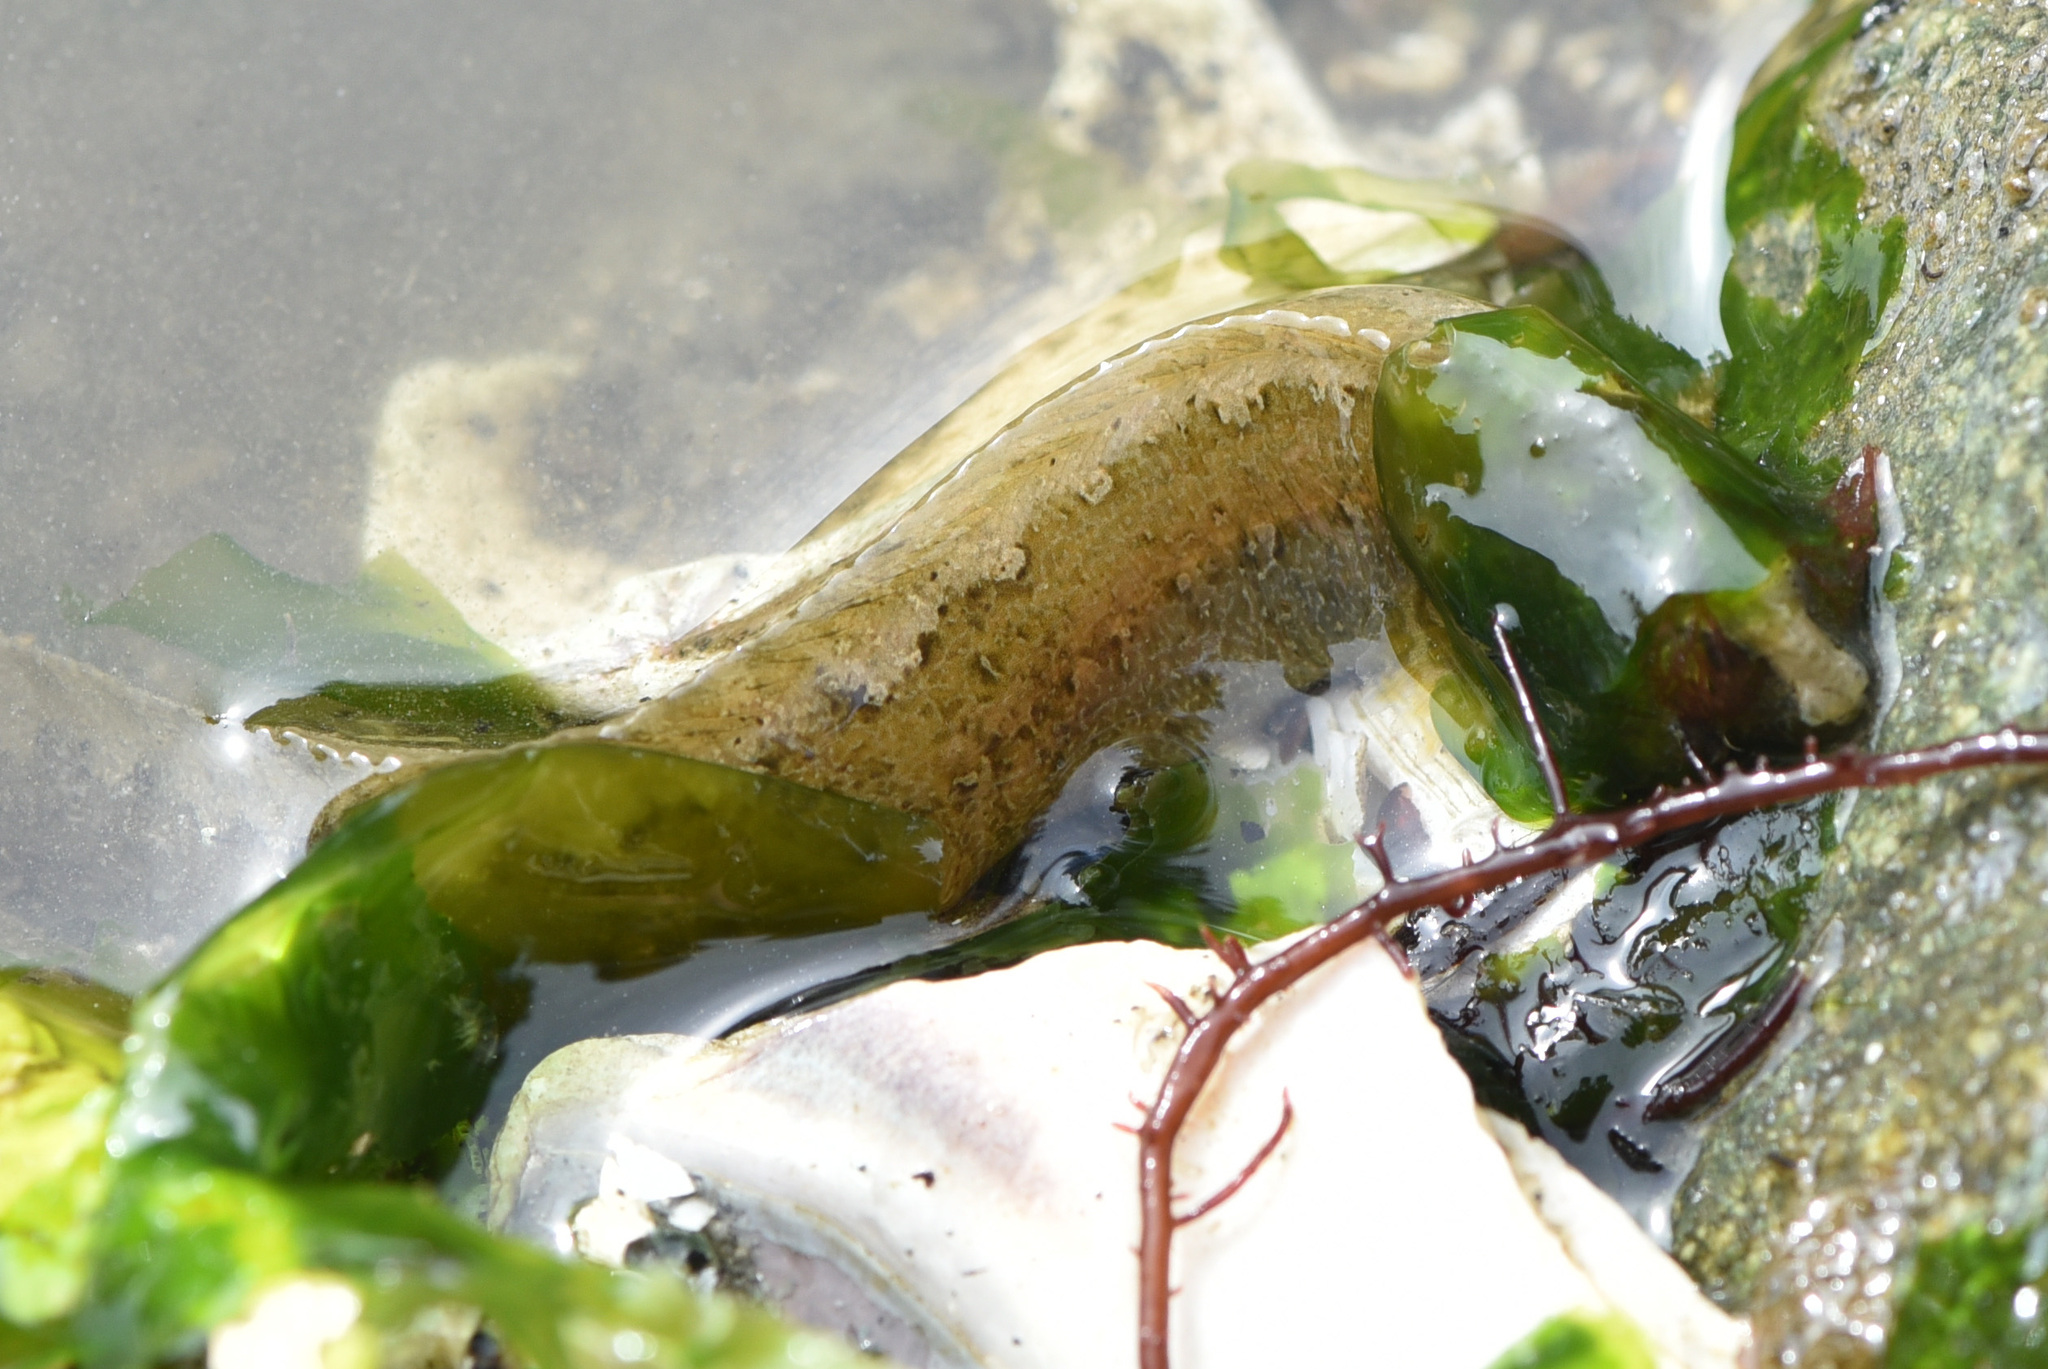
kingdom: Animalia
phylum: Chordata
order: Perciformes
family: Stichaeidae
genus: Anoplarchus
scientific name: Anoplarchus purpurescens
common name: High cockscomb
